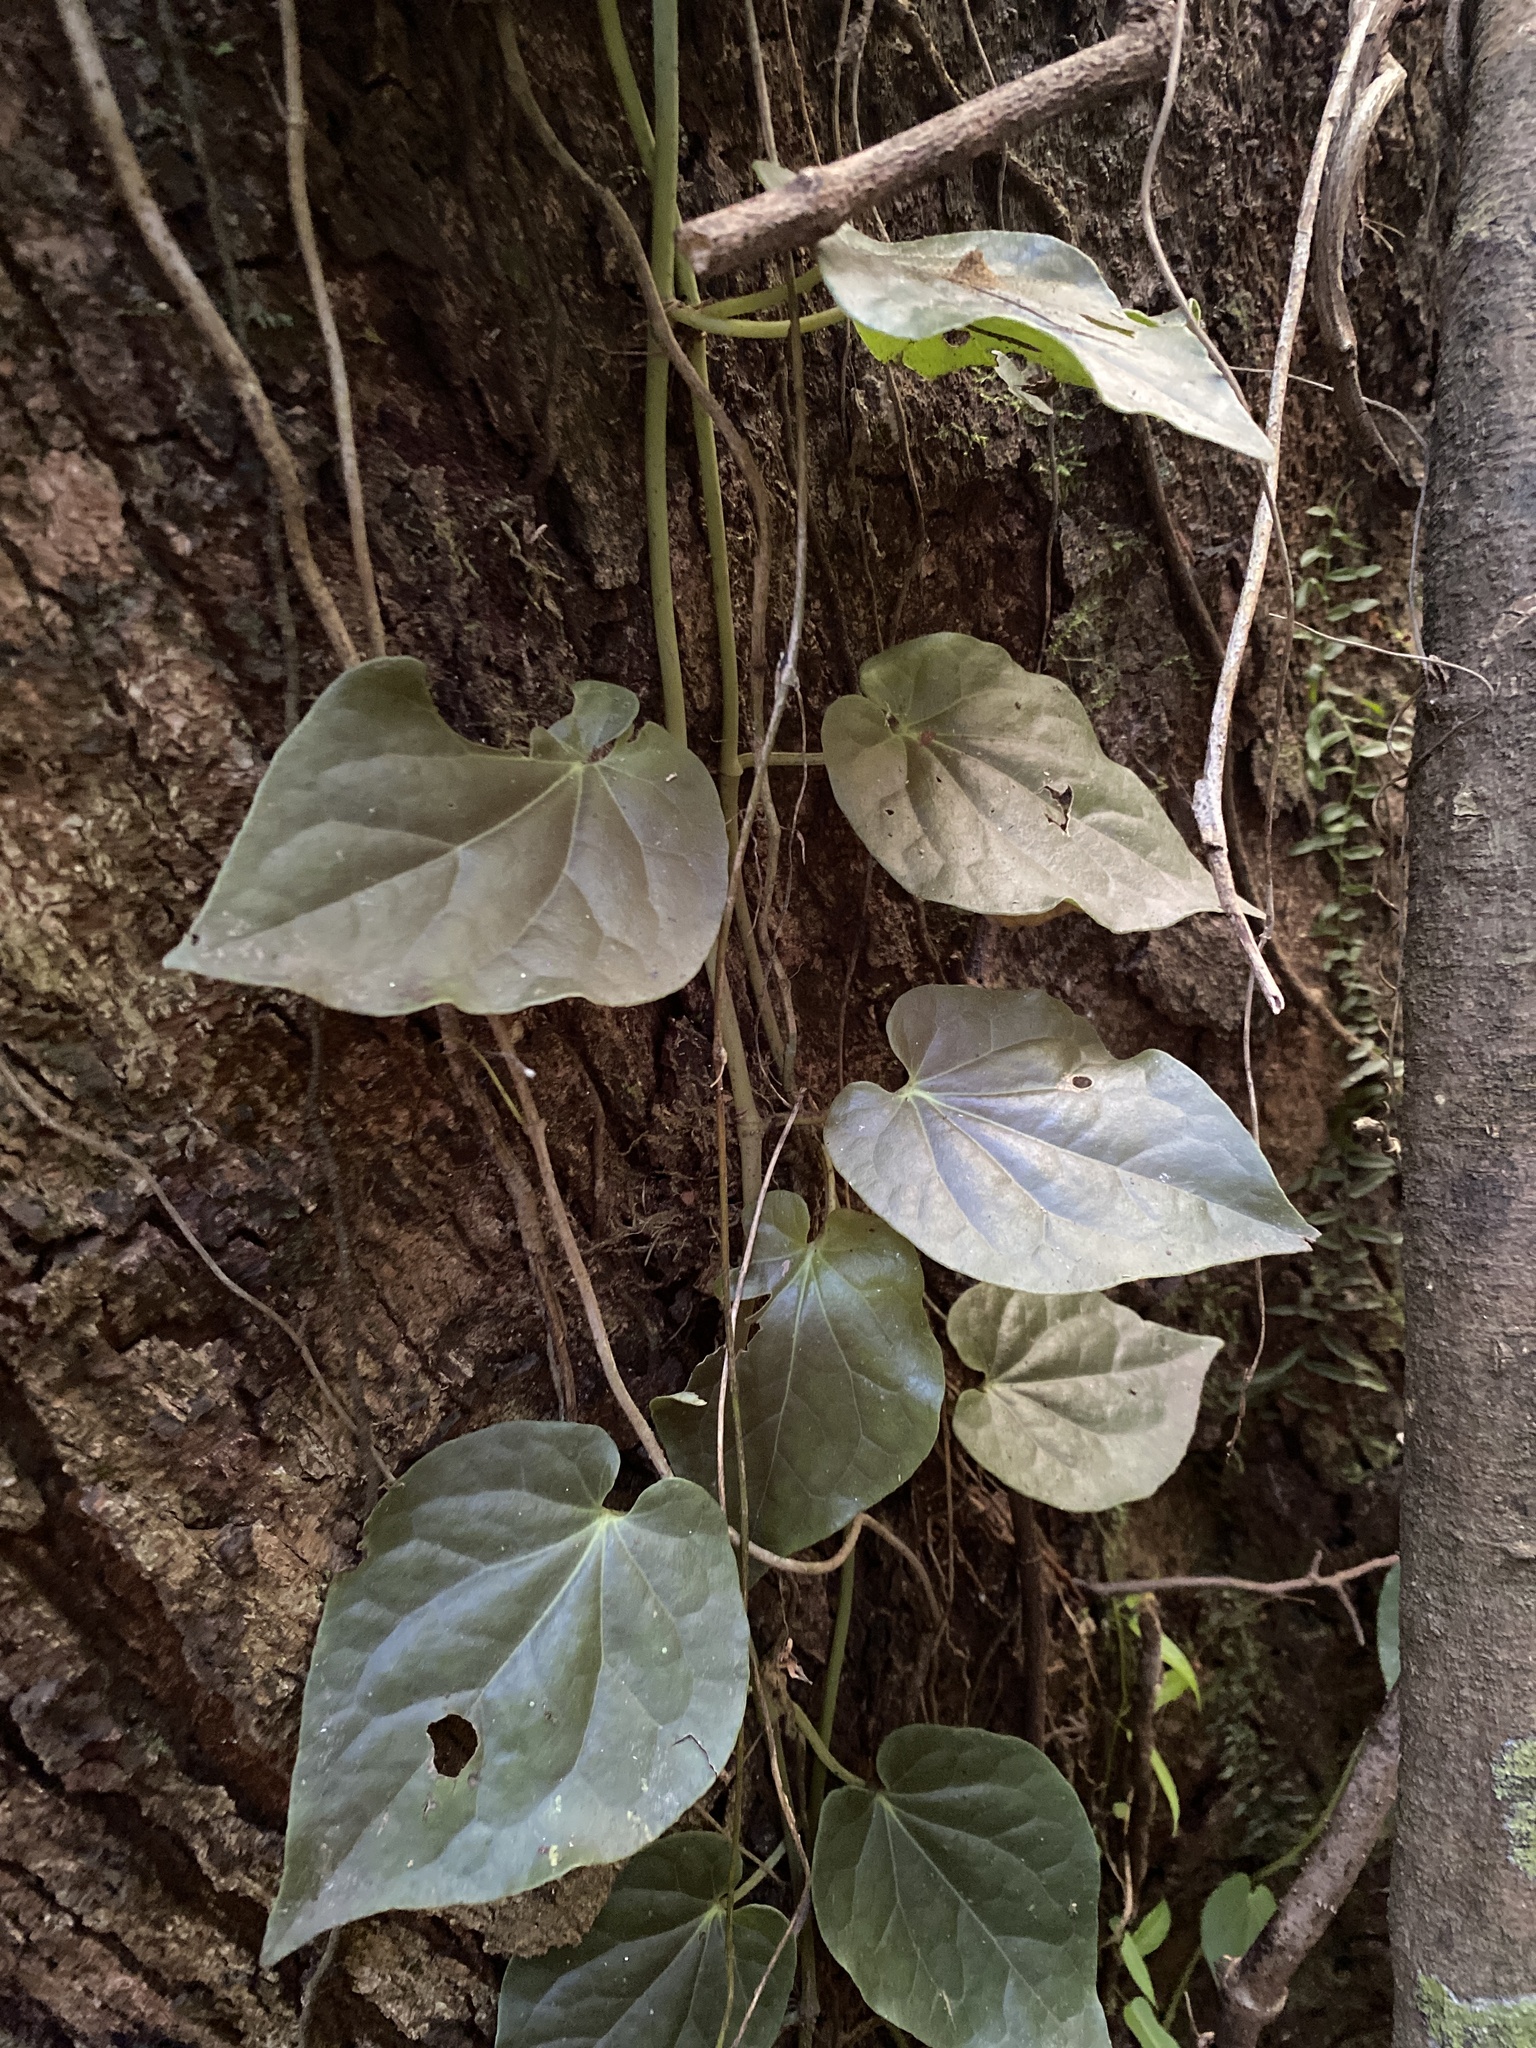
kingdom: Plantae
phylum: Tracheophyta
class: Magnoliopsida
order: Piperales
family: Piperaceae
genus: Piper
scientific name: Piper hederaceum
